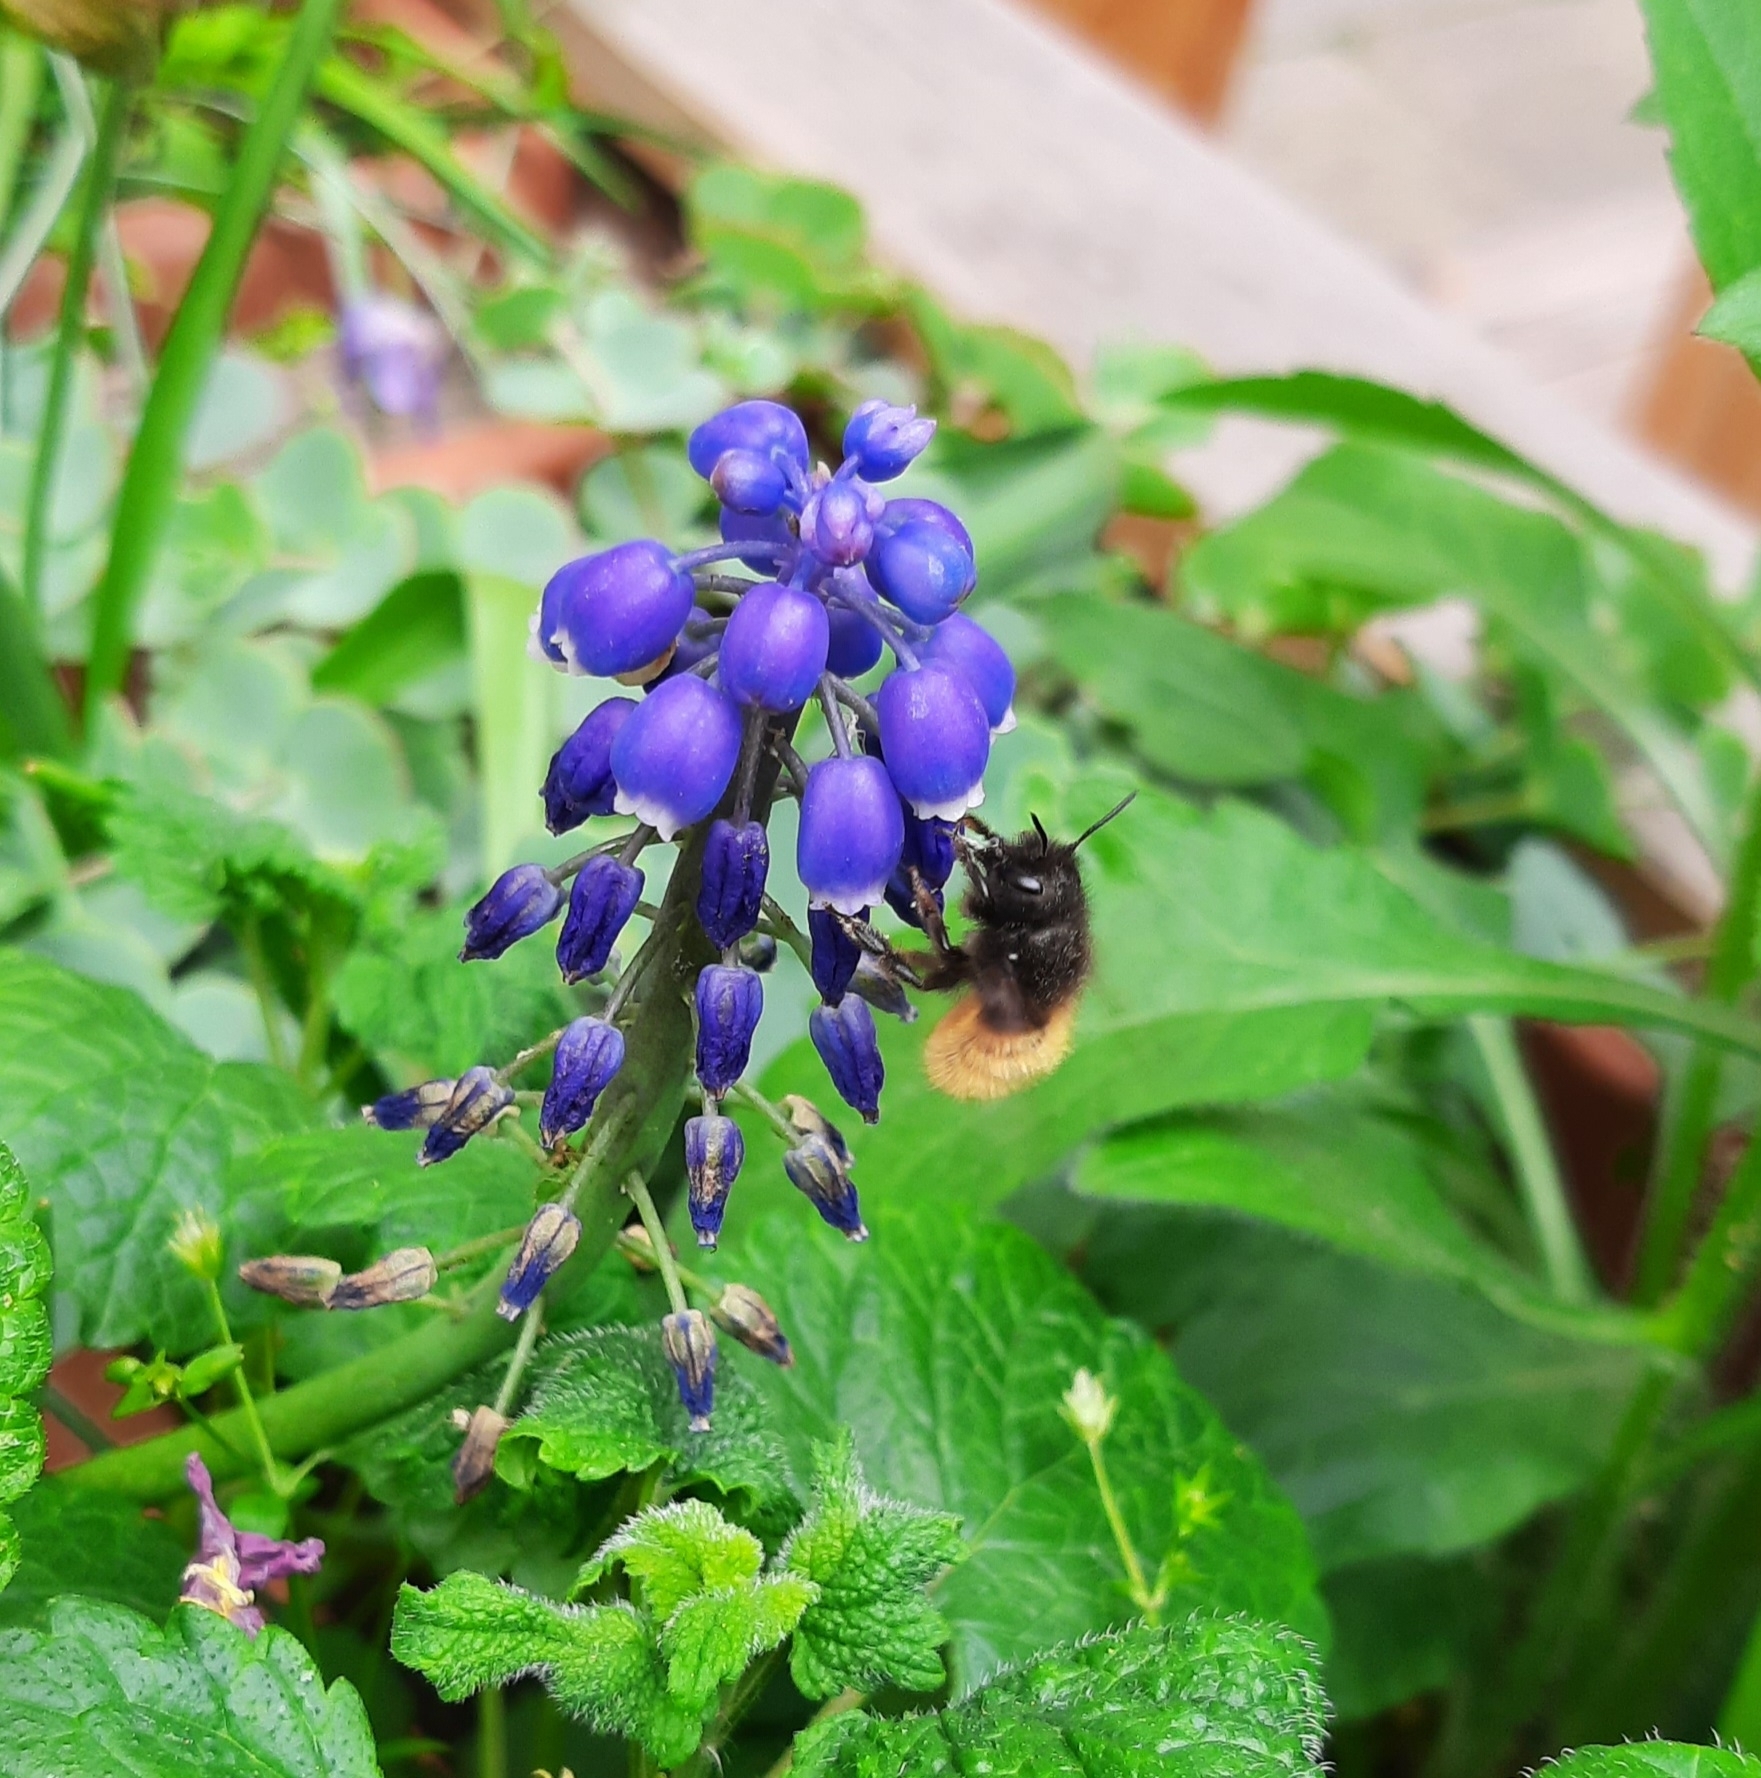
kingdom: Animalia
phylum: Arthropoda
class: Insecta
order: Hymenoptera
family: Megachilidae
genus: Osmia
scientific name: Osmia cornuta
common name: Mason bee
